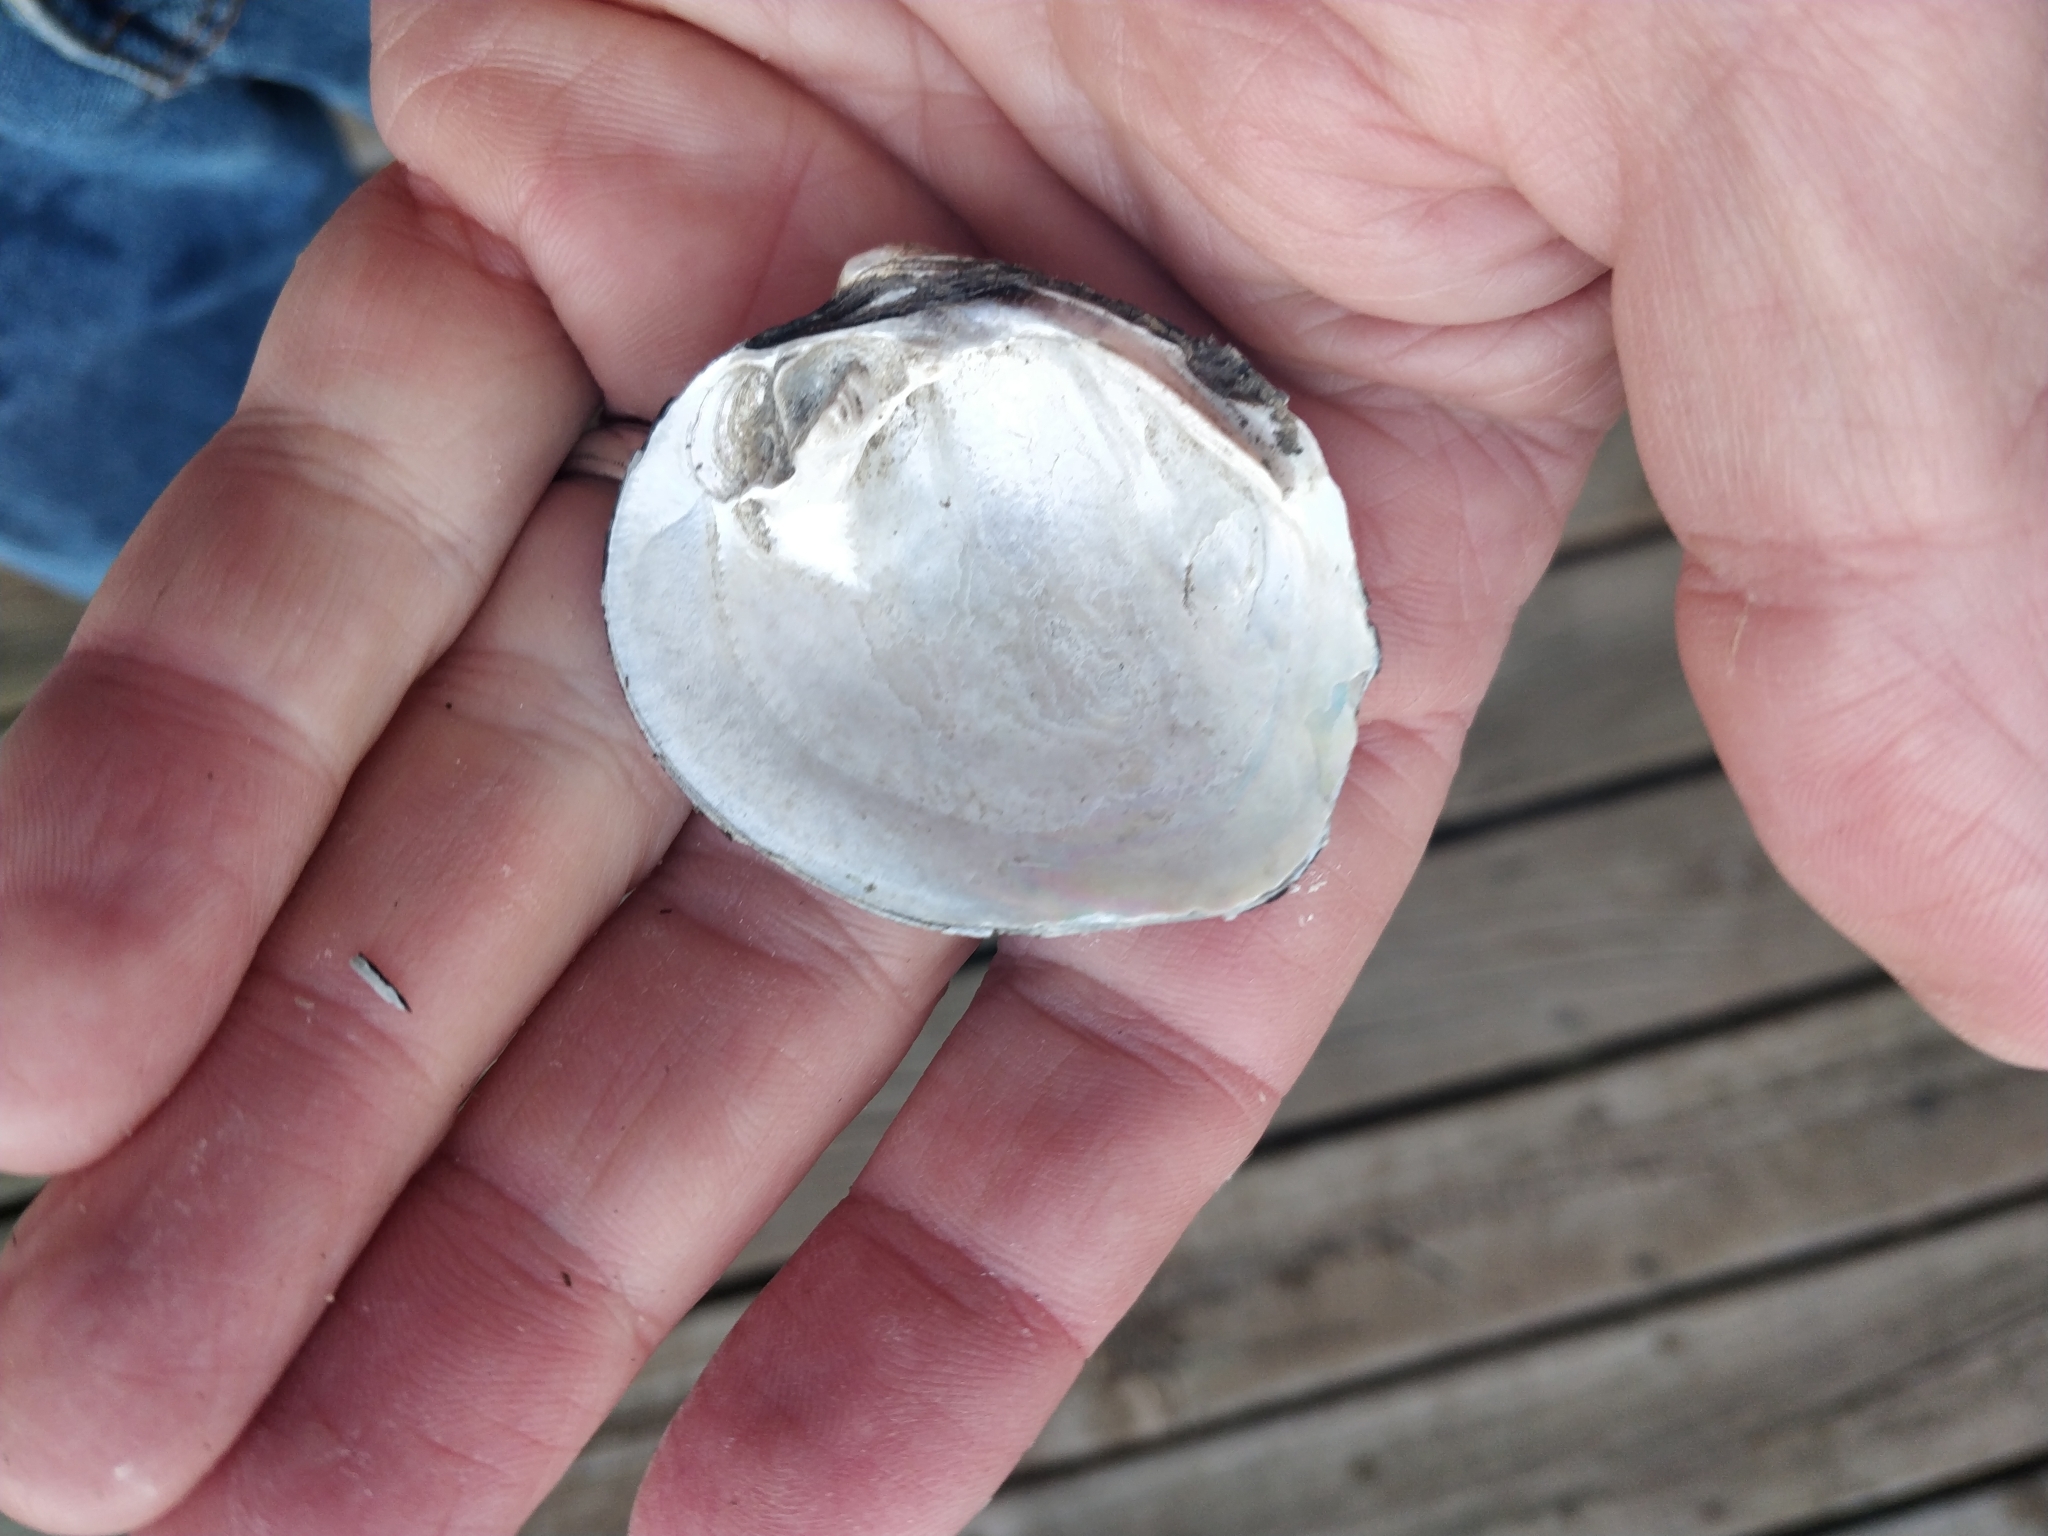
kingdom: Animalia
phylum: Mollusca
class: Bivalvia
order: Unionida
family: Unionidae
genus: Cyclonaias
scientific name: Cyclonaias pustulosa
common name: Pimpleback
